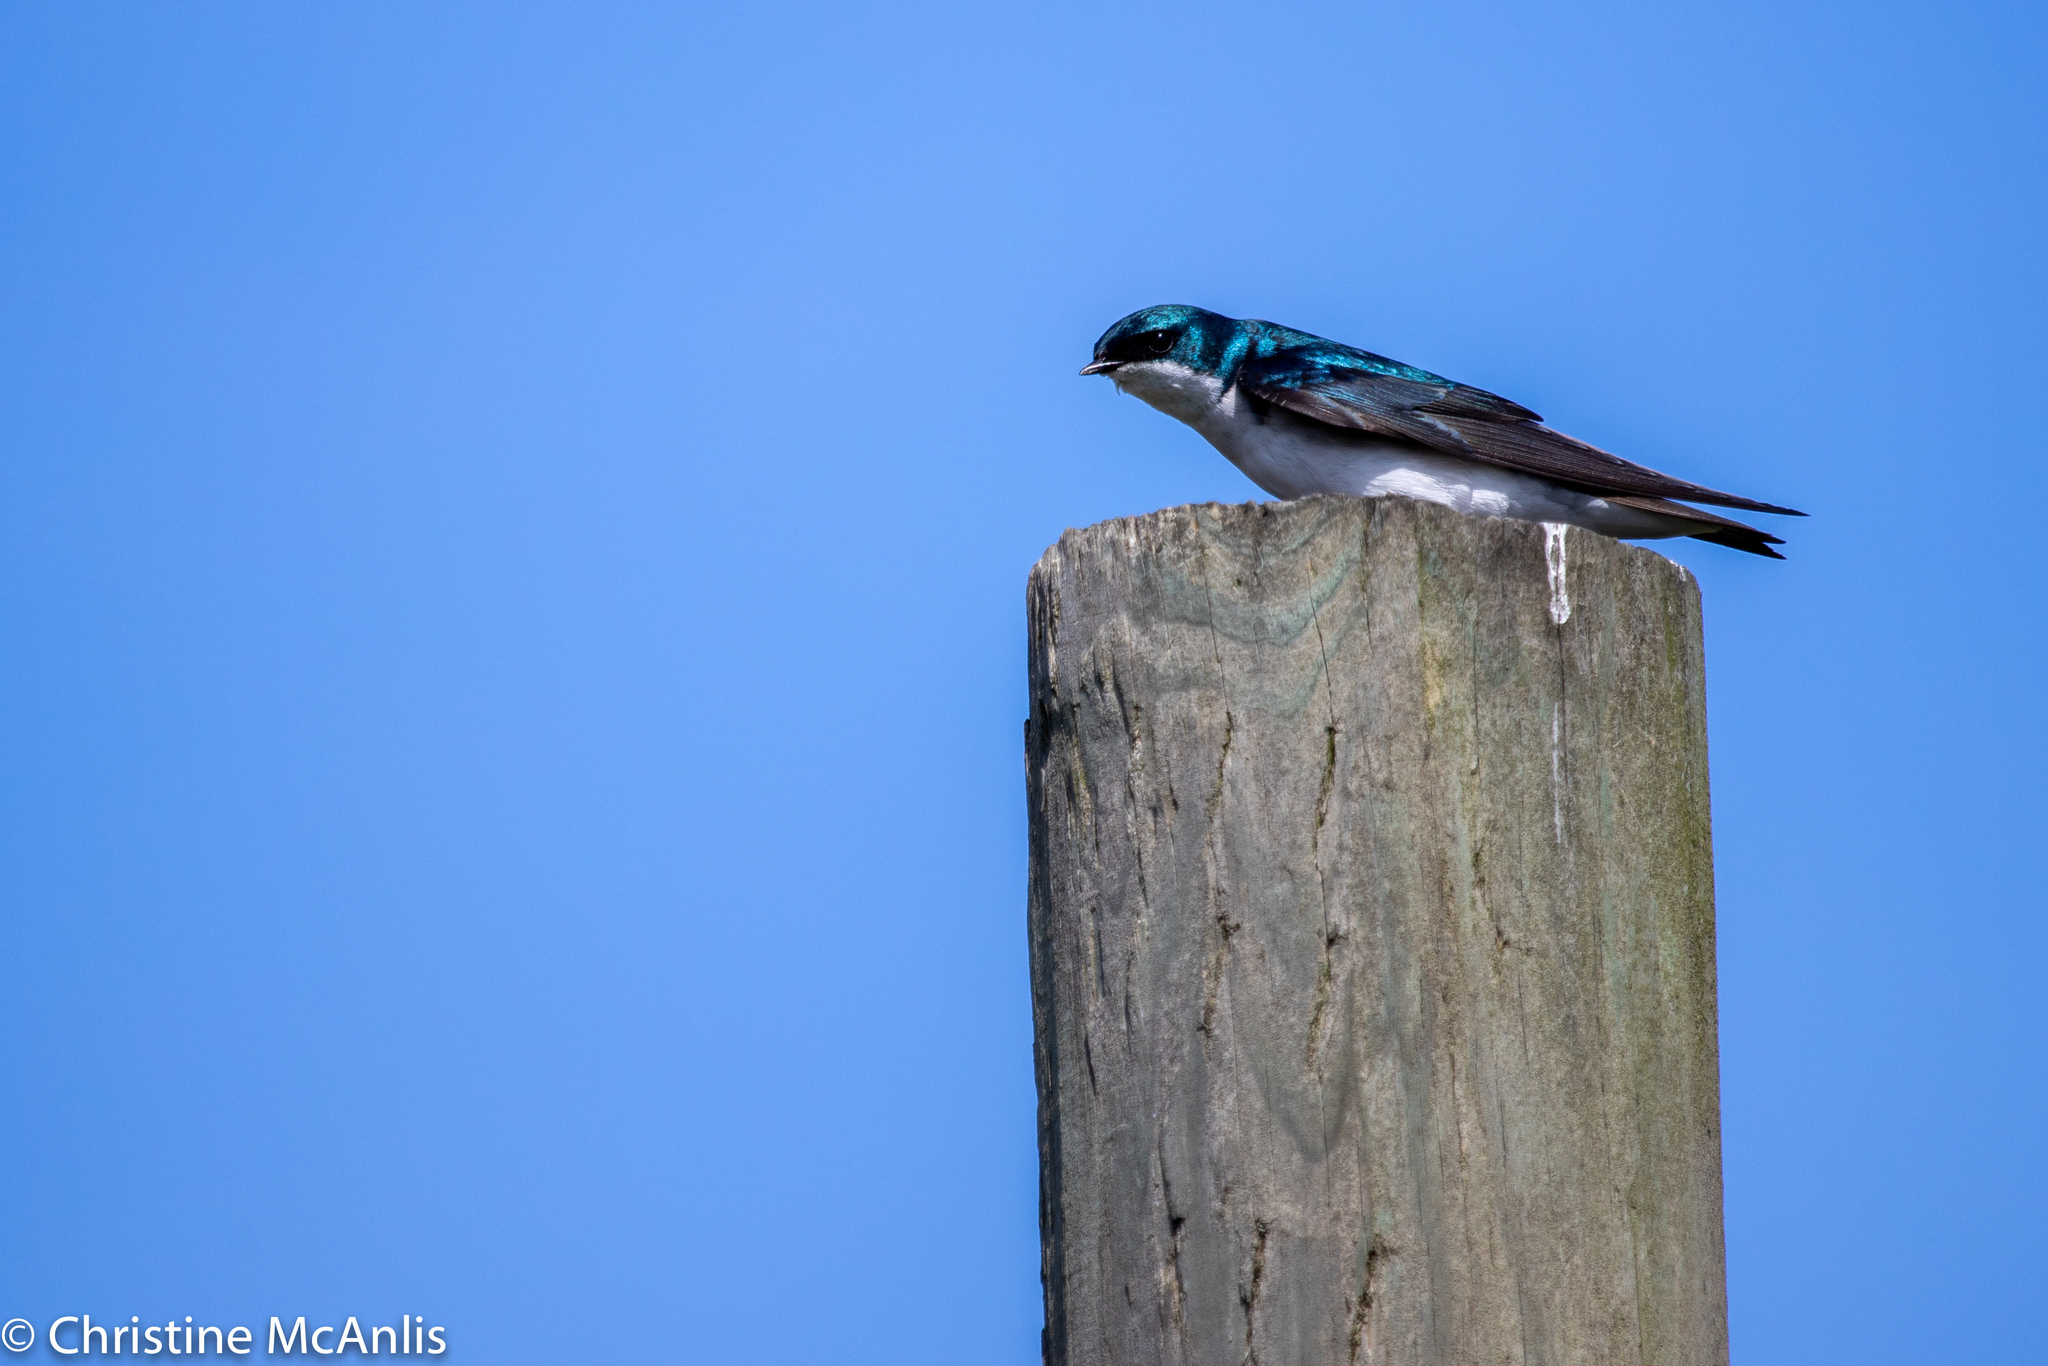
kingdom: Animalia
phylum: Chordata
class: Aves
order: Passeriformes
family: Hirundinidae
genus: Tachycineta
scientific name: Tachycineta bicolor
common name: Tree swallow
